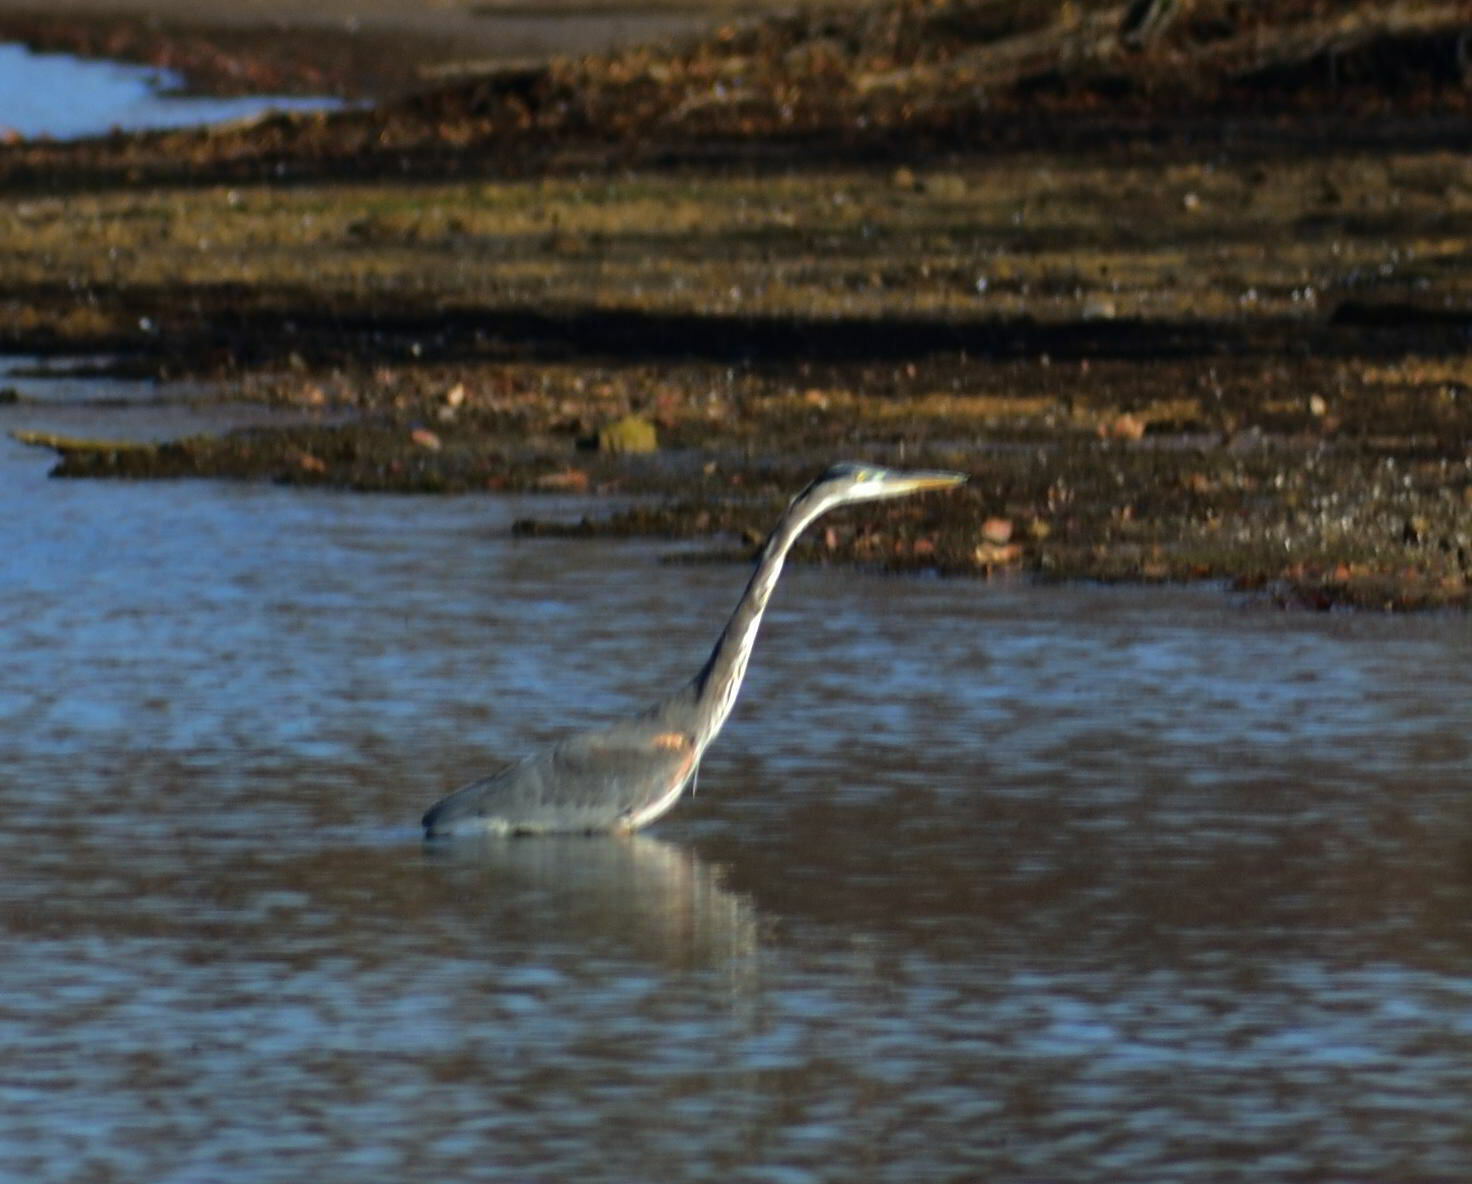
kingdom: Animalia
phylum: Chordata
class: Aves
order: Pelecaniformes
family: Ardeidae
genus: Ardea
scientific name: Ardea herodias
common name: Great blue heron
